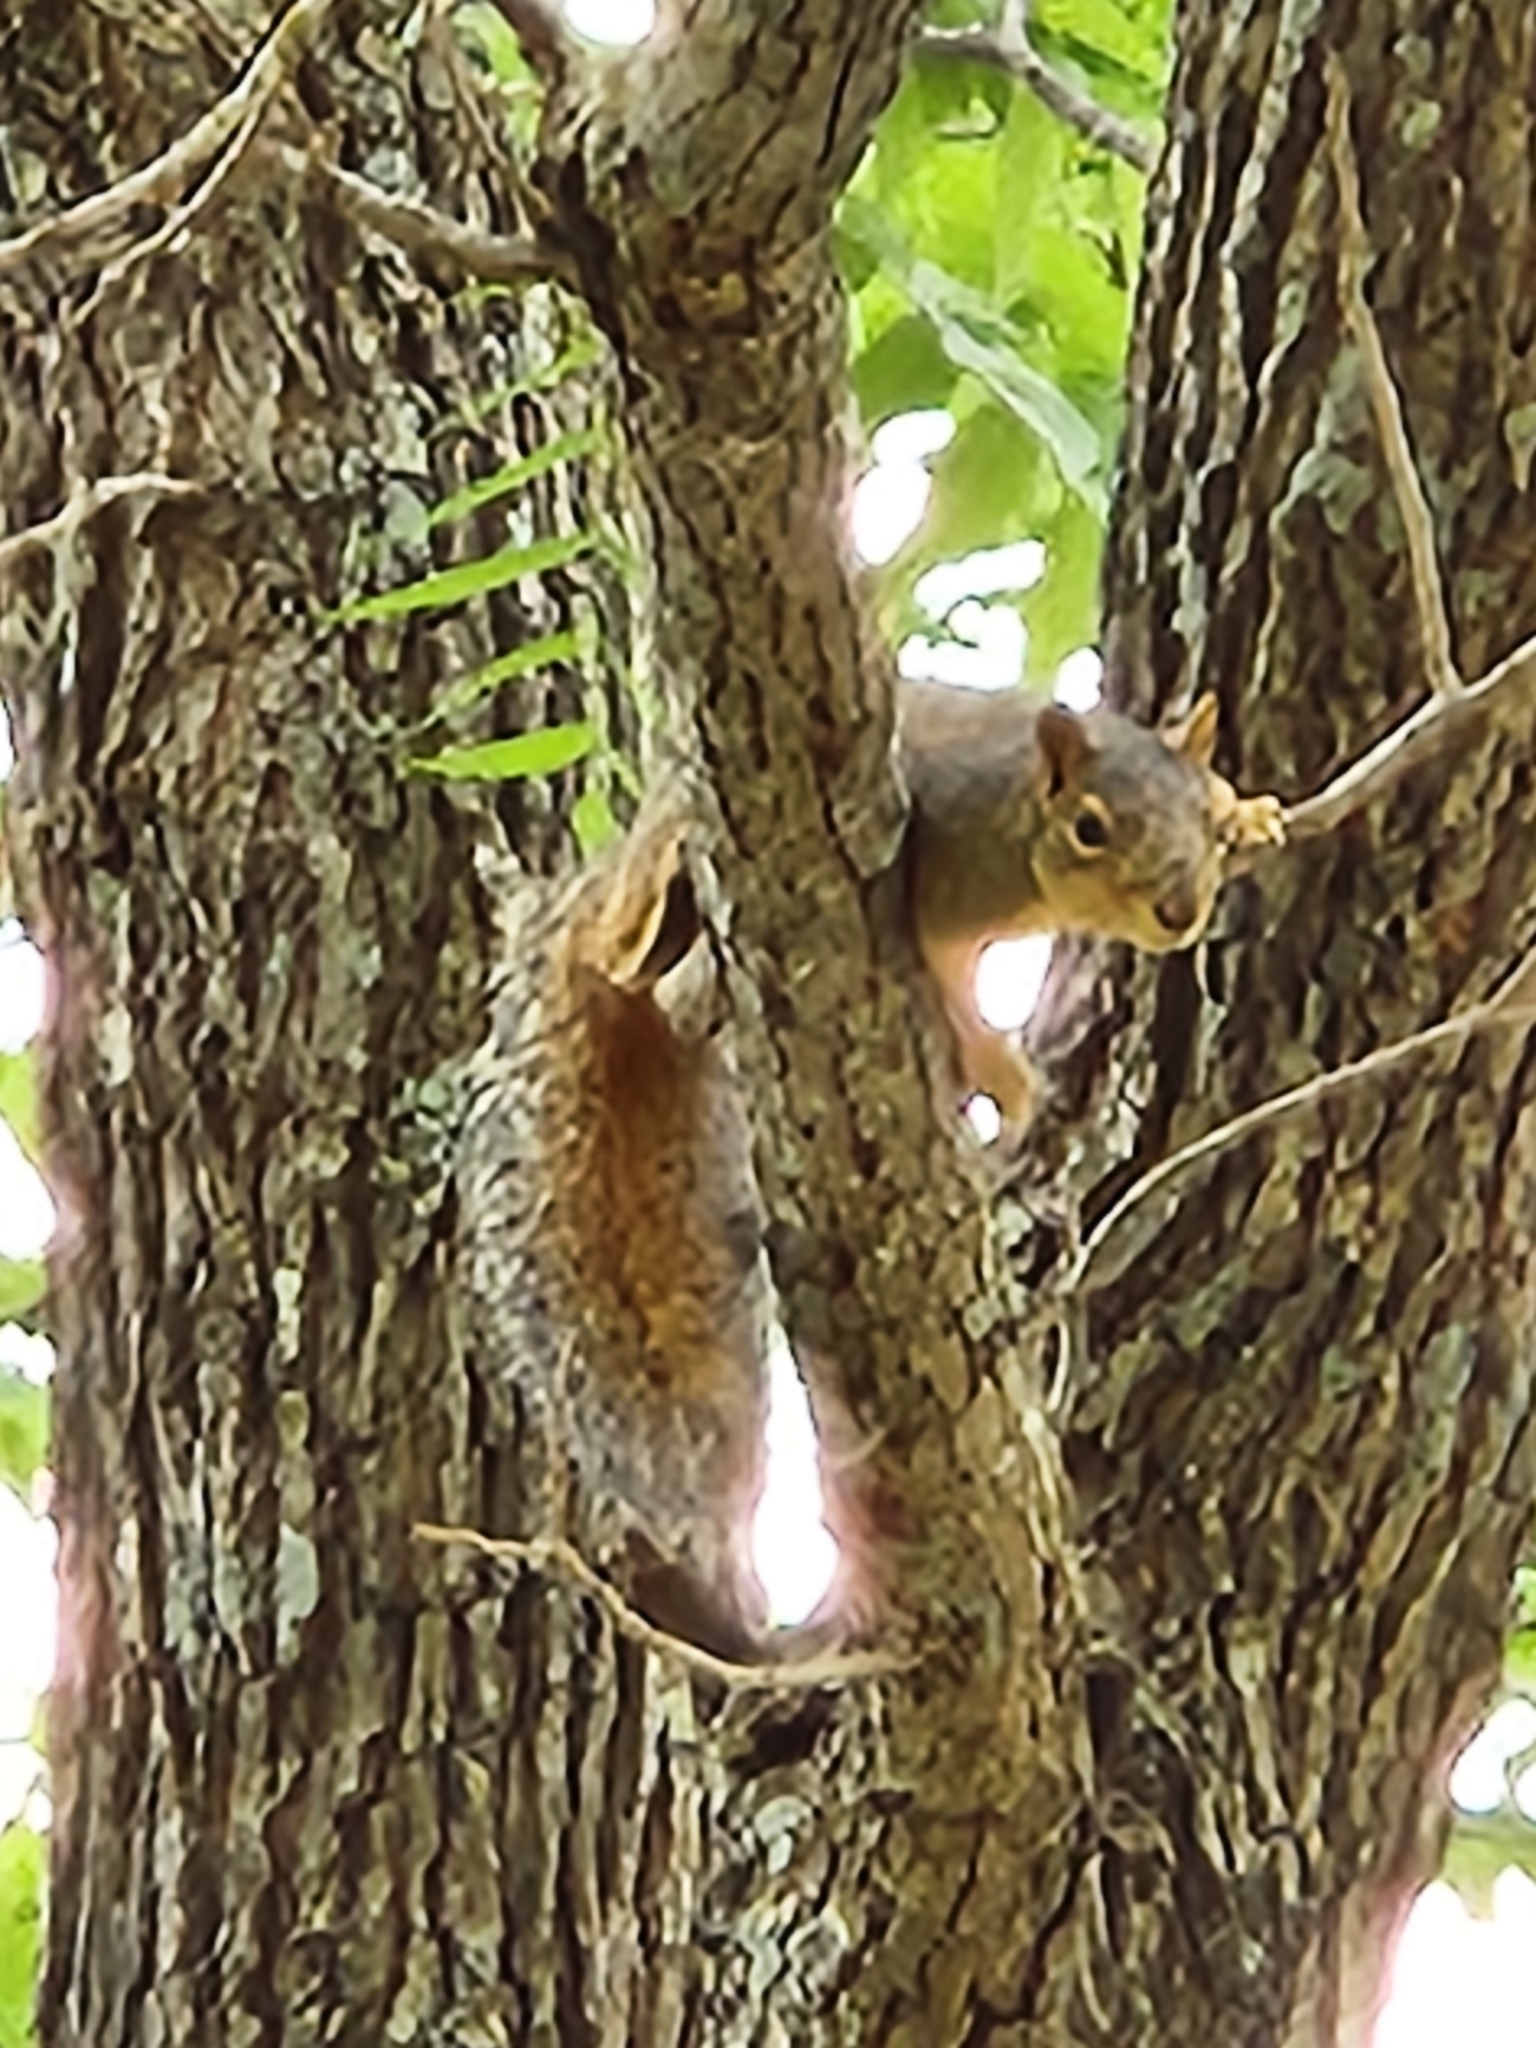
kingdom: Animalia
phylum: Chordata
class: Mammalia
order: Rodentia
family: Sciuridae
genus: Sciurus
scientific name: Sciurus niger
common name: Fox squirrel
